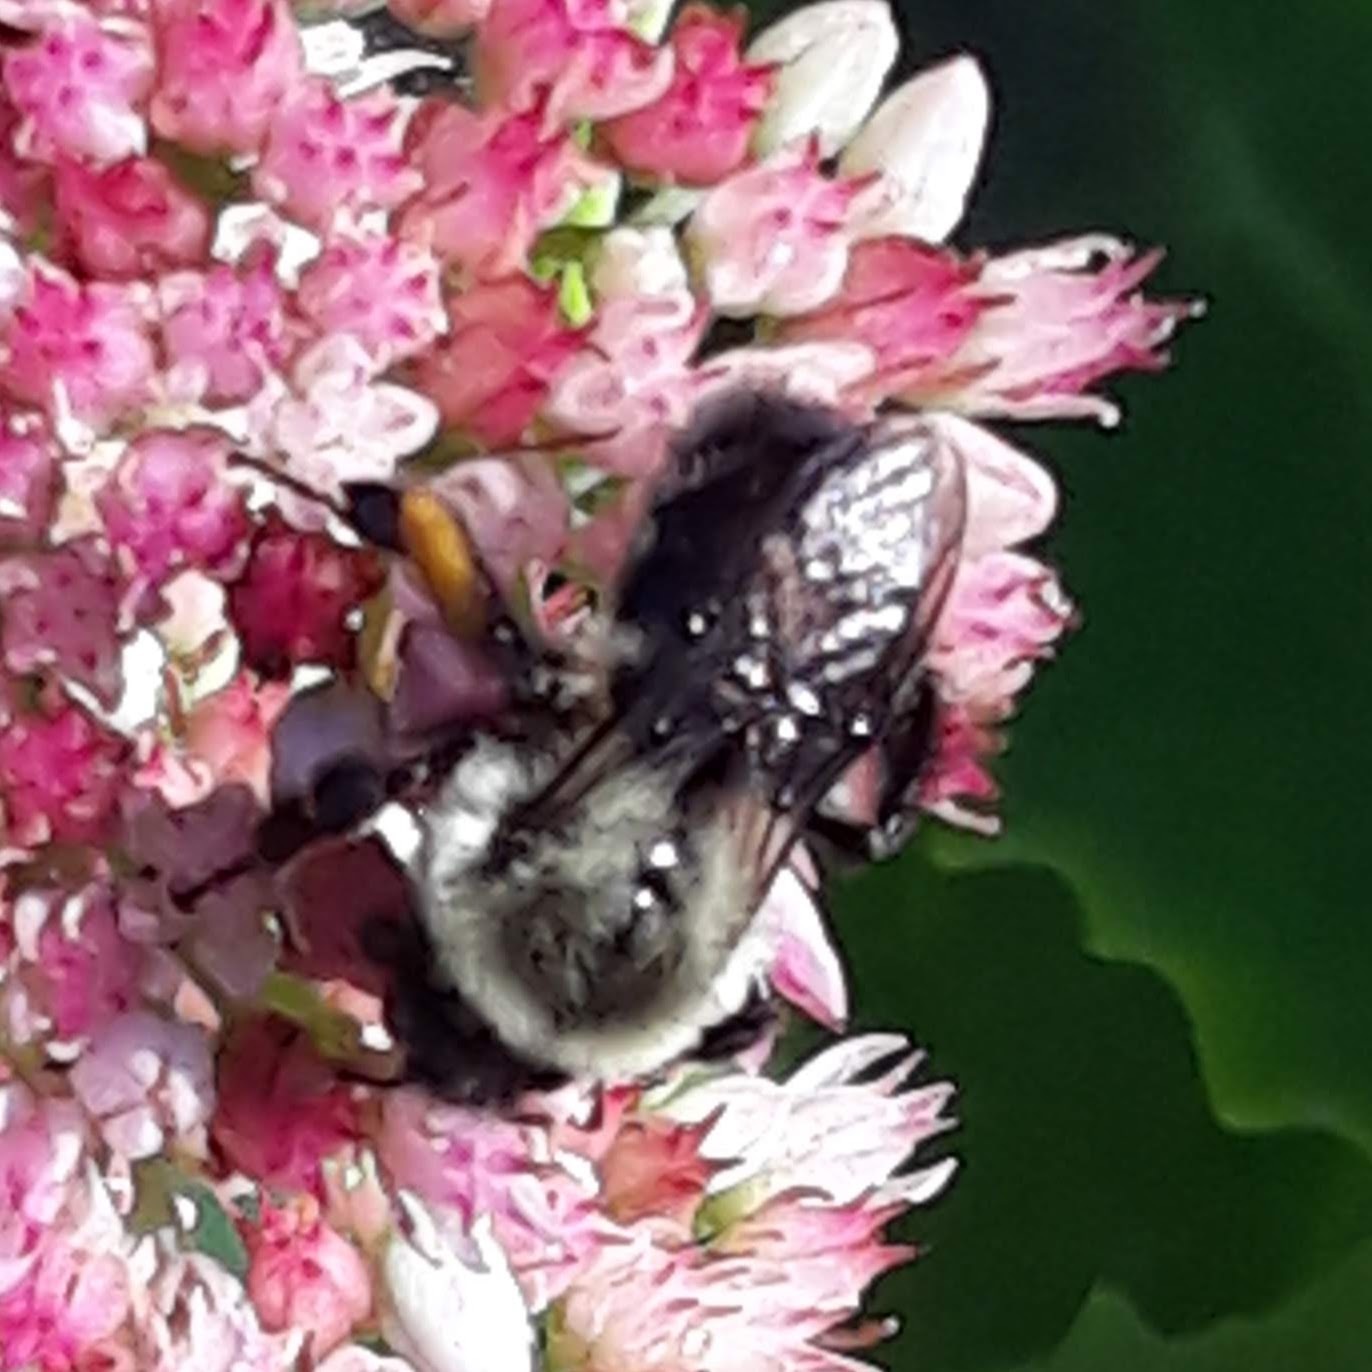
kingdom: Animalia
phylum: Arthropoda
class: Insecta
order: Hymenoptera
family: Apidae
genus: Bombus
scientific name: Bombus impatiens
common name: Common eastern bumble bee
